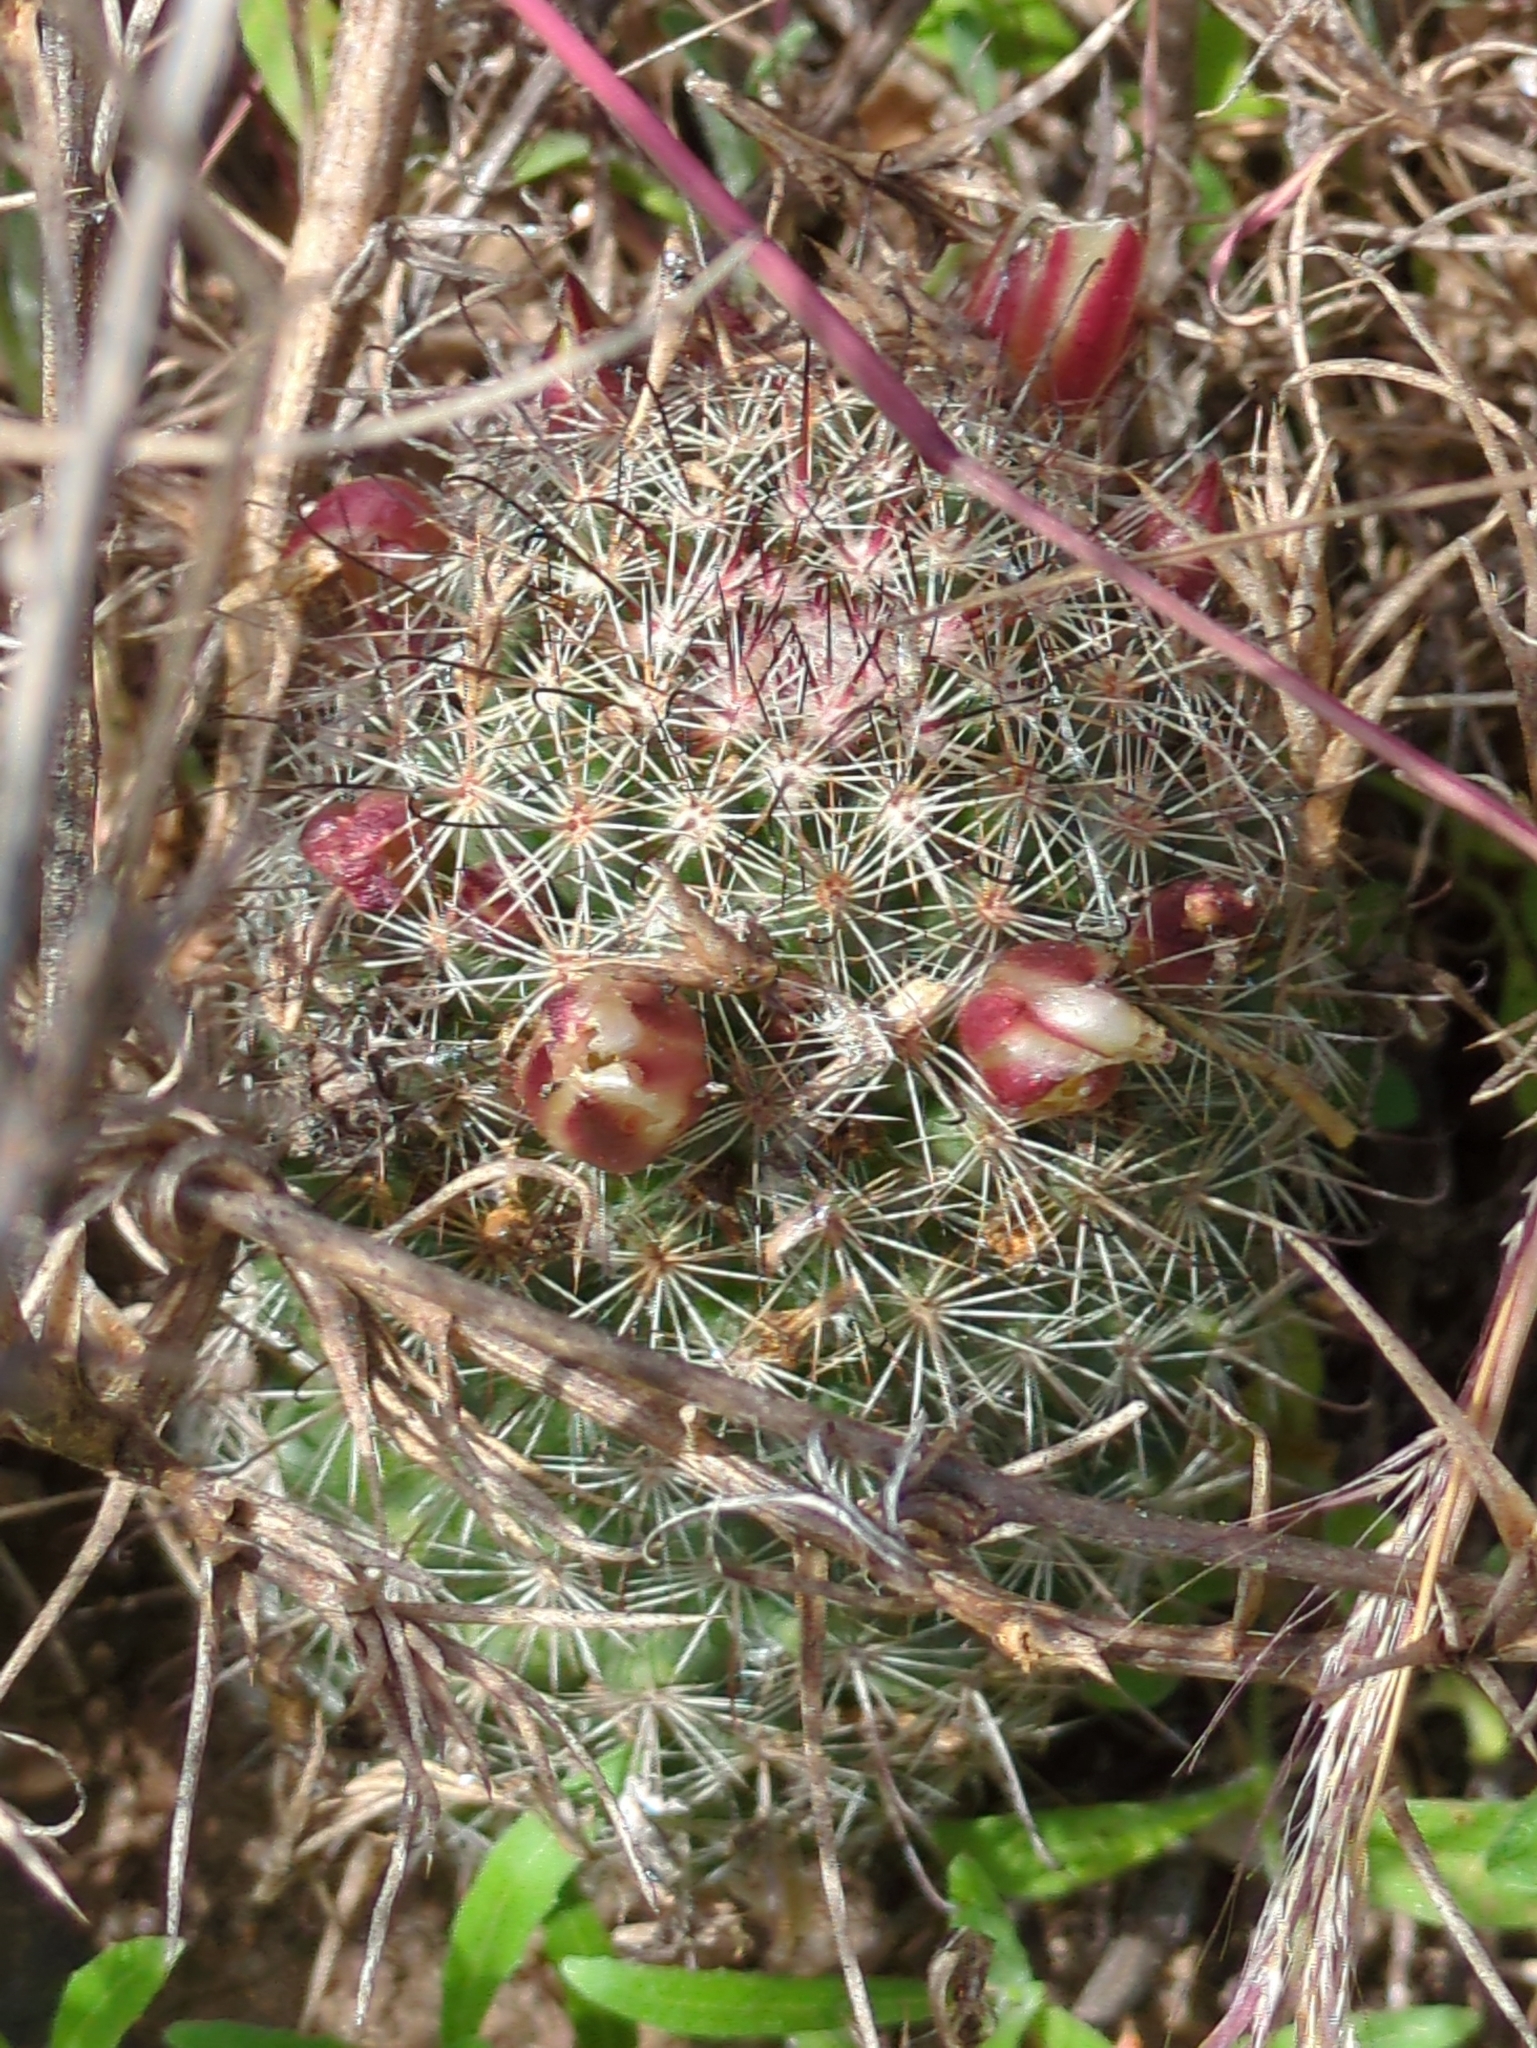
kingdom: Plantae
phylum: Tracheophyta
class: Magnoliopsida
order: Caryophyllales
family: Cactaceae
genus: Cochemiea
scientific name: Cochemiea dioica
